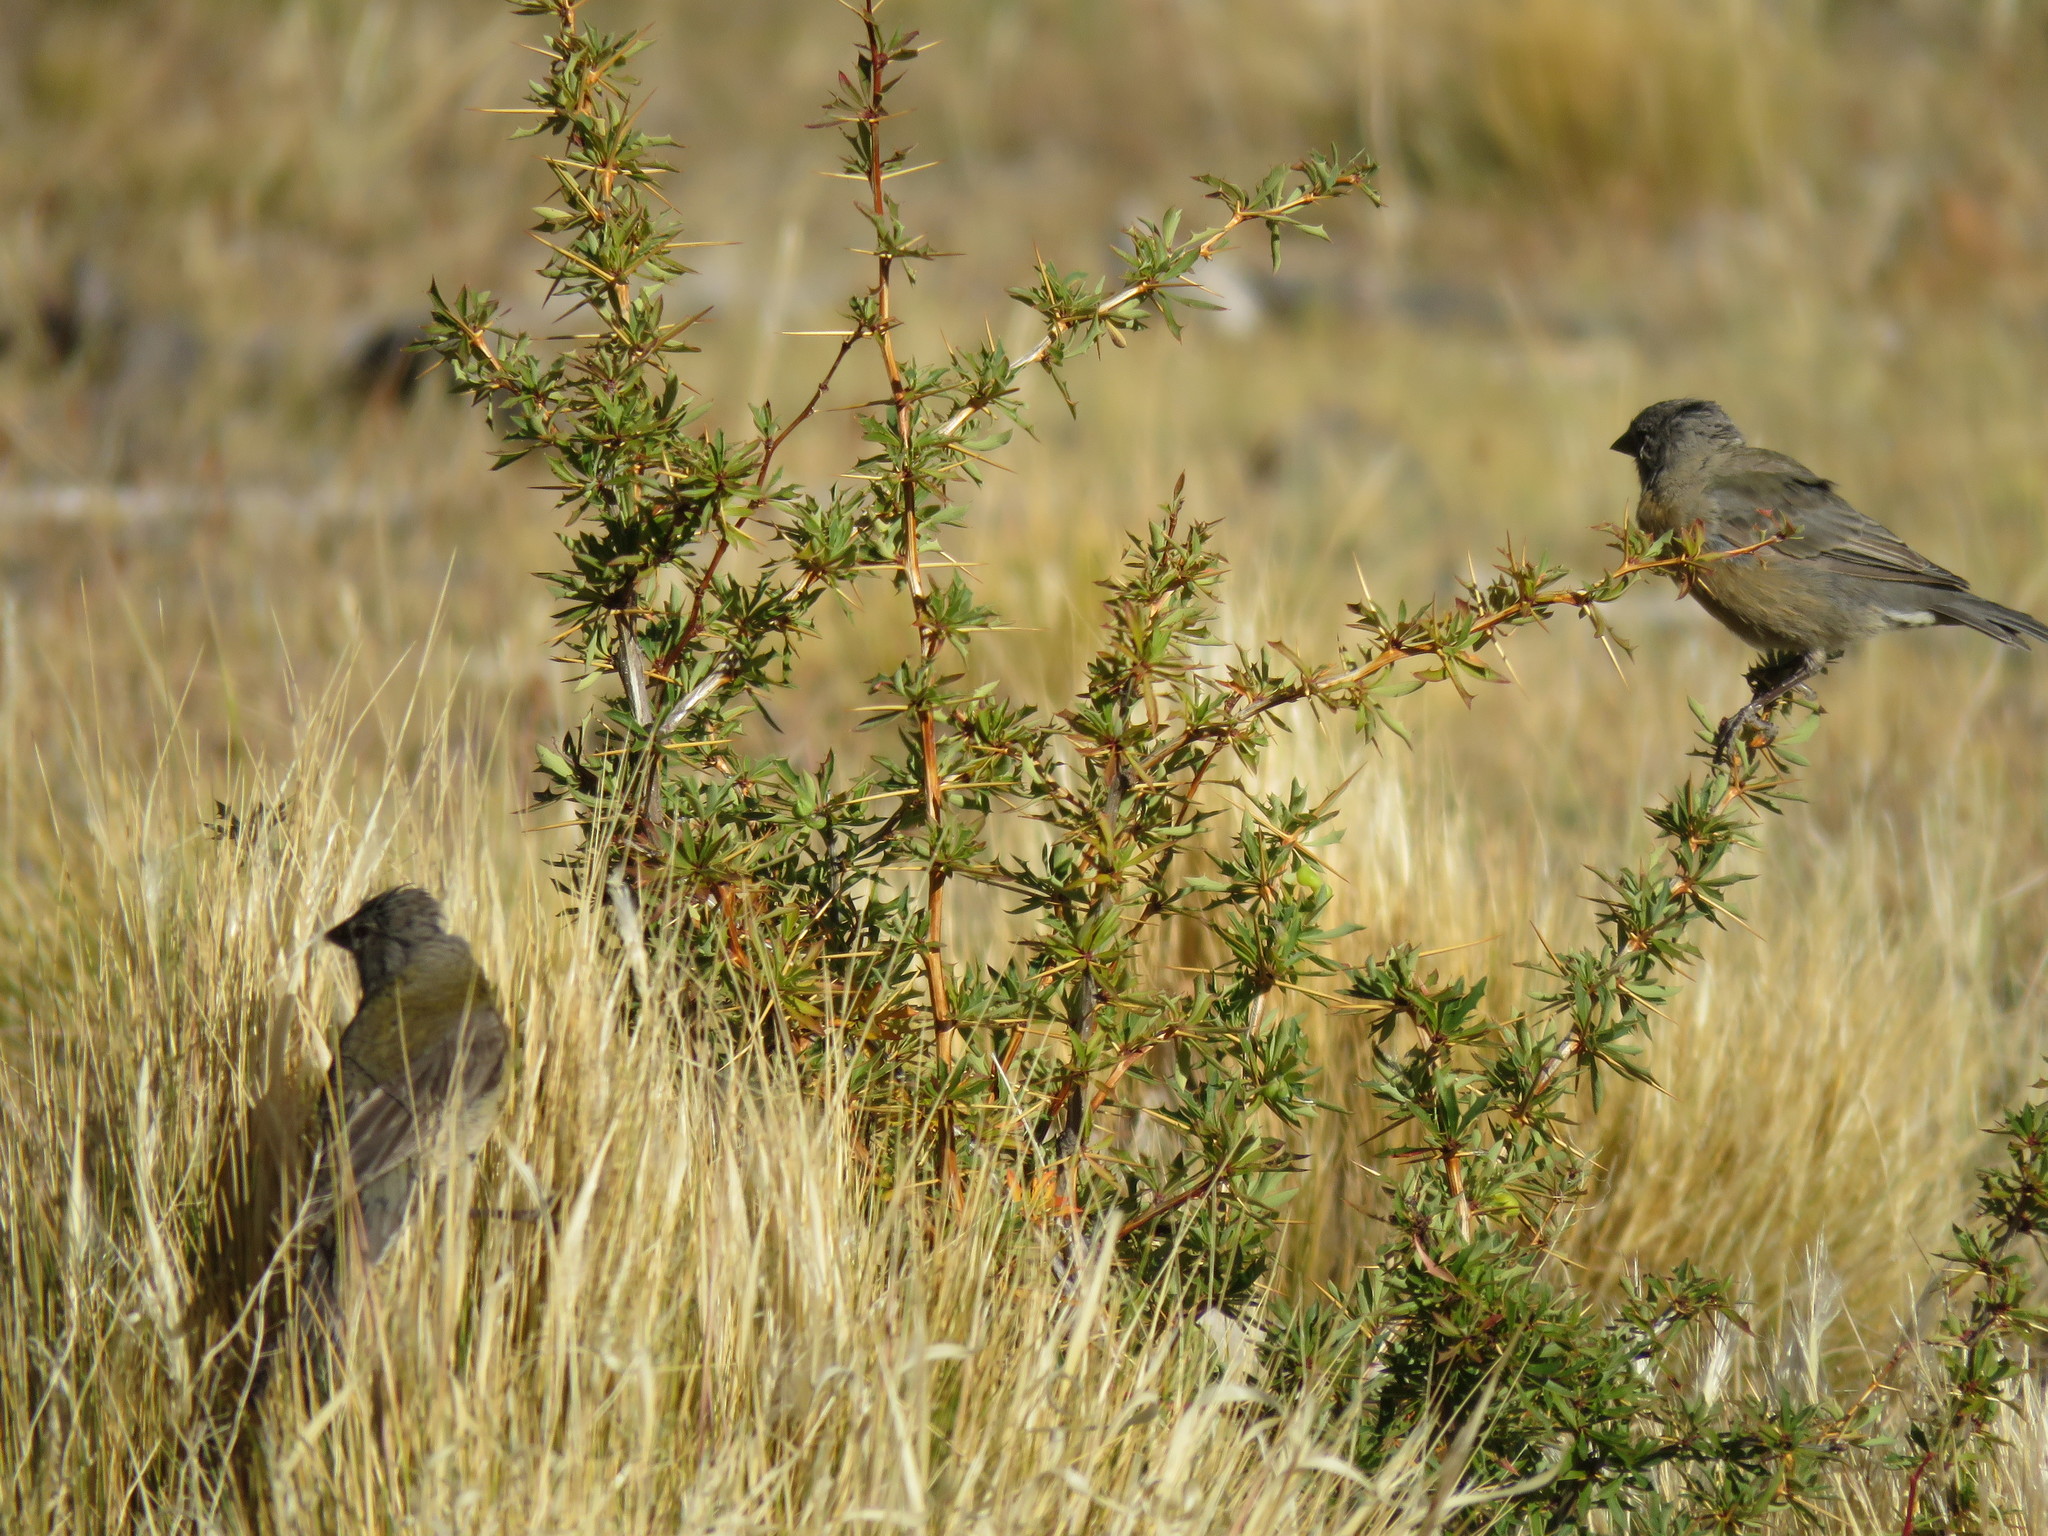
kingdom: Animalia
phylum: Chordata
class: Aves
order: Passeriformes
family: Thraupidae
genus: Phrygilus
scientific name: Phrygilus gayi
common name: Grey-hooded sierra finch
